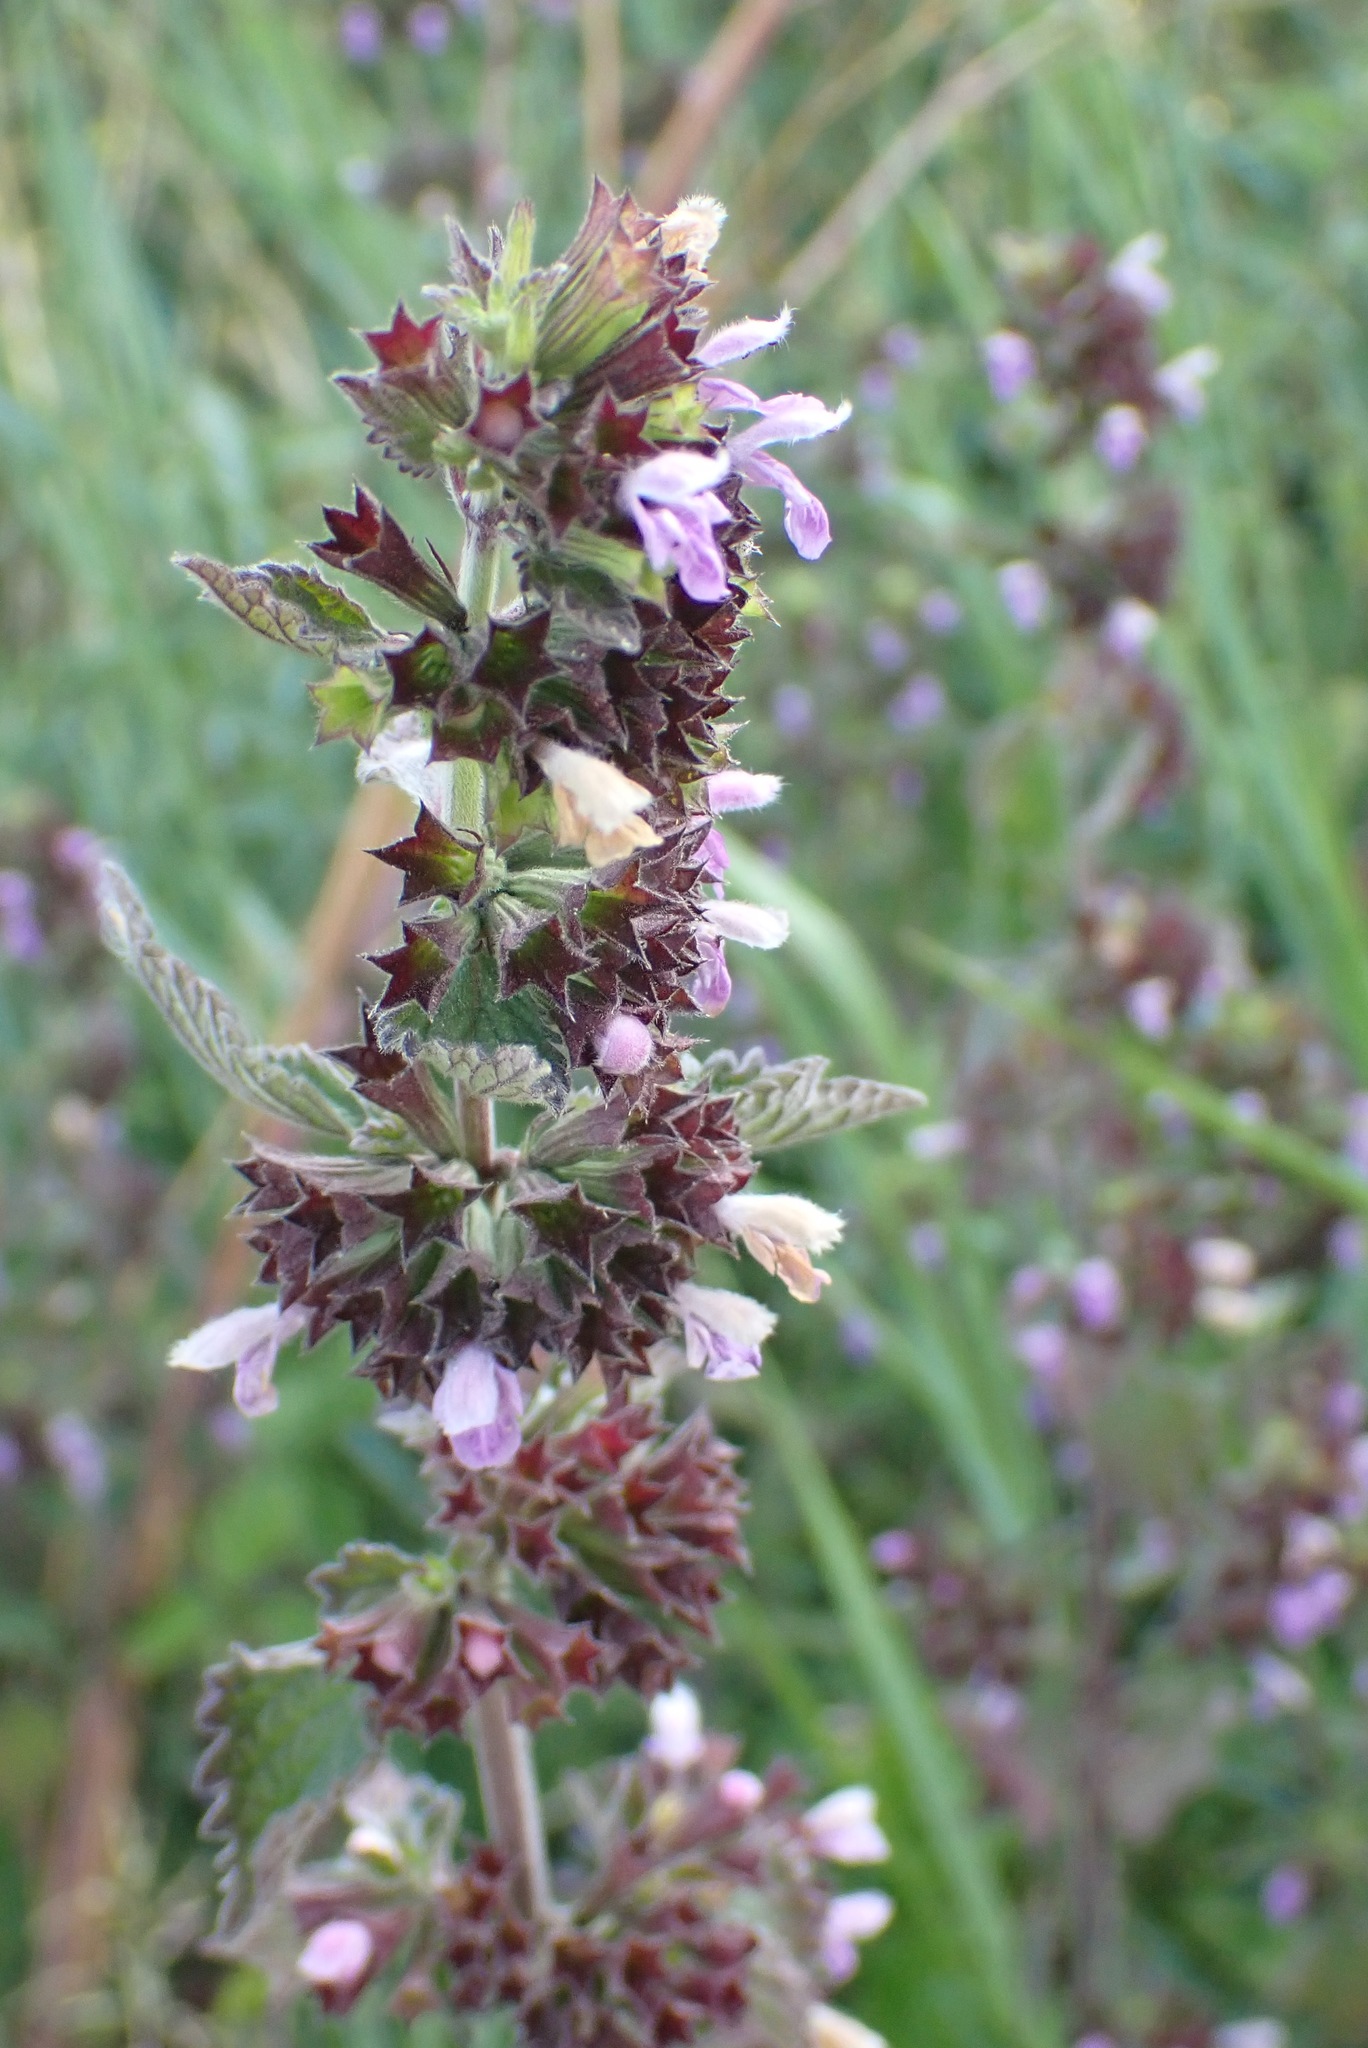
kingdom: Plantae
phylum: Tracheophyta
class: Magnoliopsida
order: Lamiales
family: Lamiaceae
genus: Ballota
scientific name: Ballota nigra
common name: Black horehound
